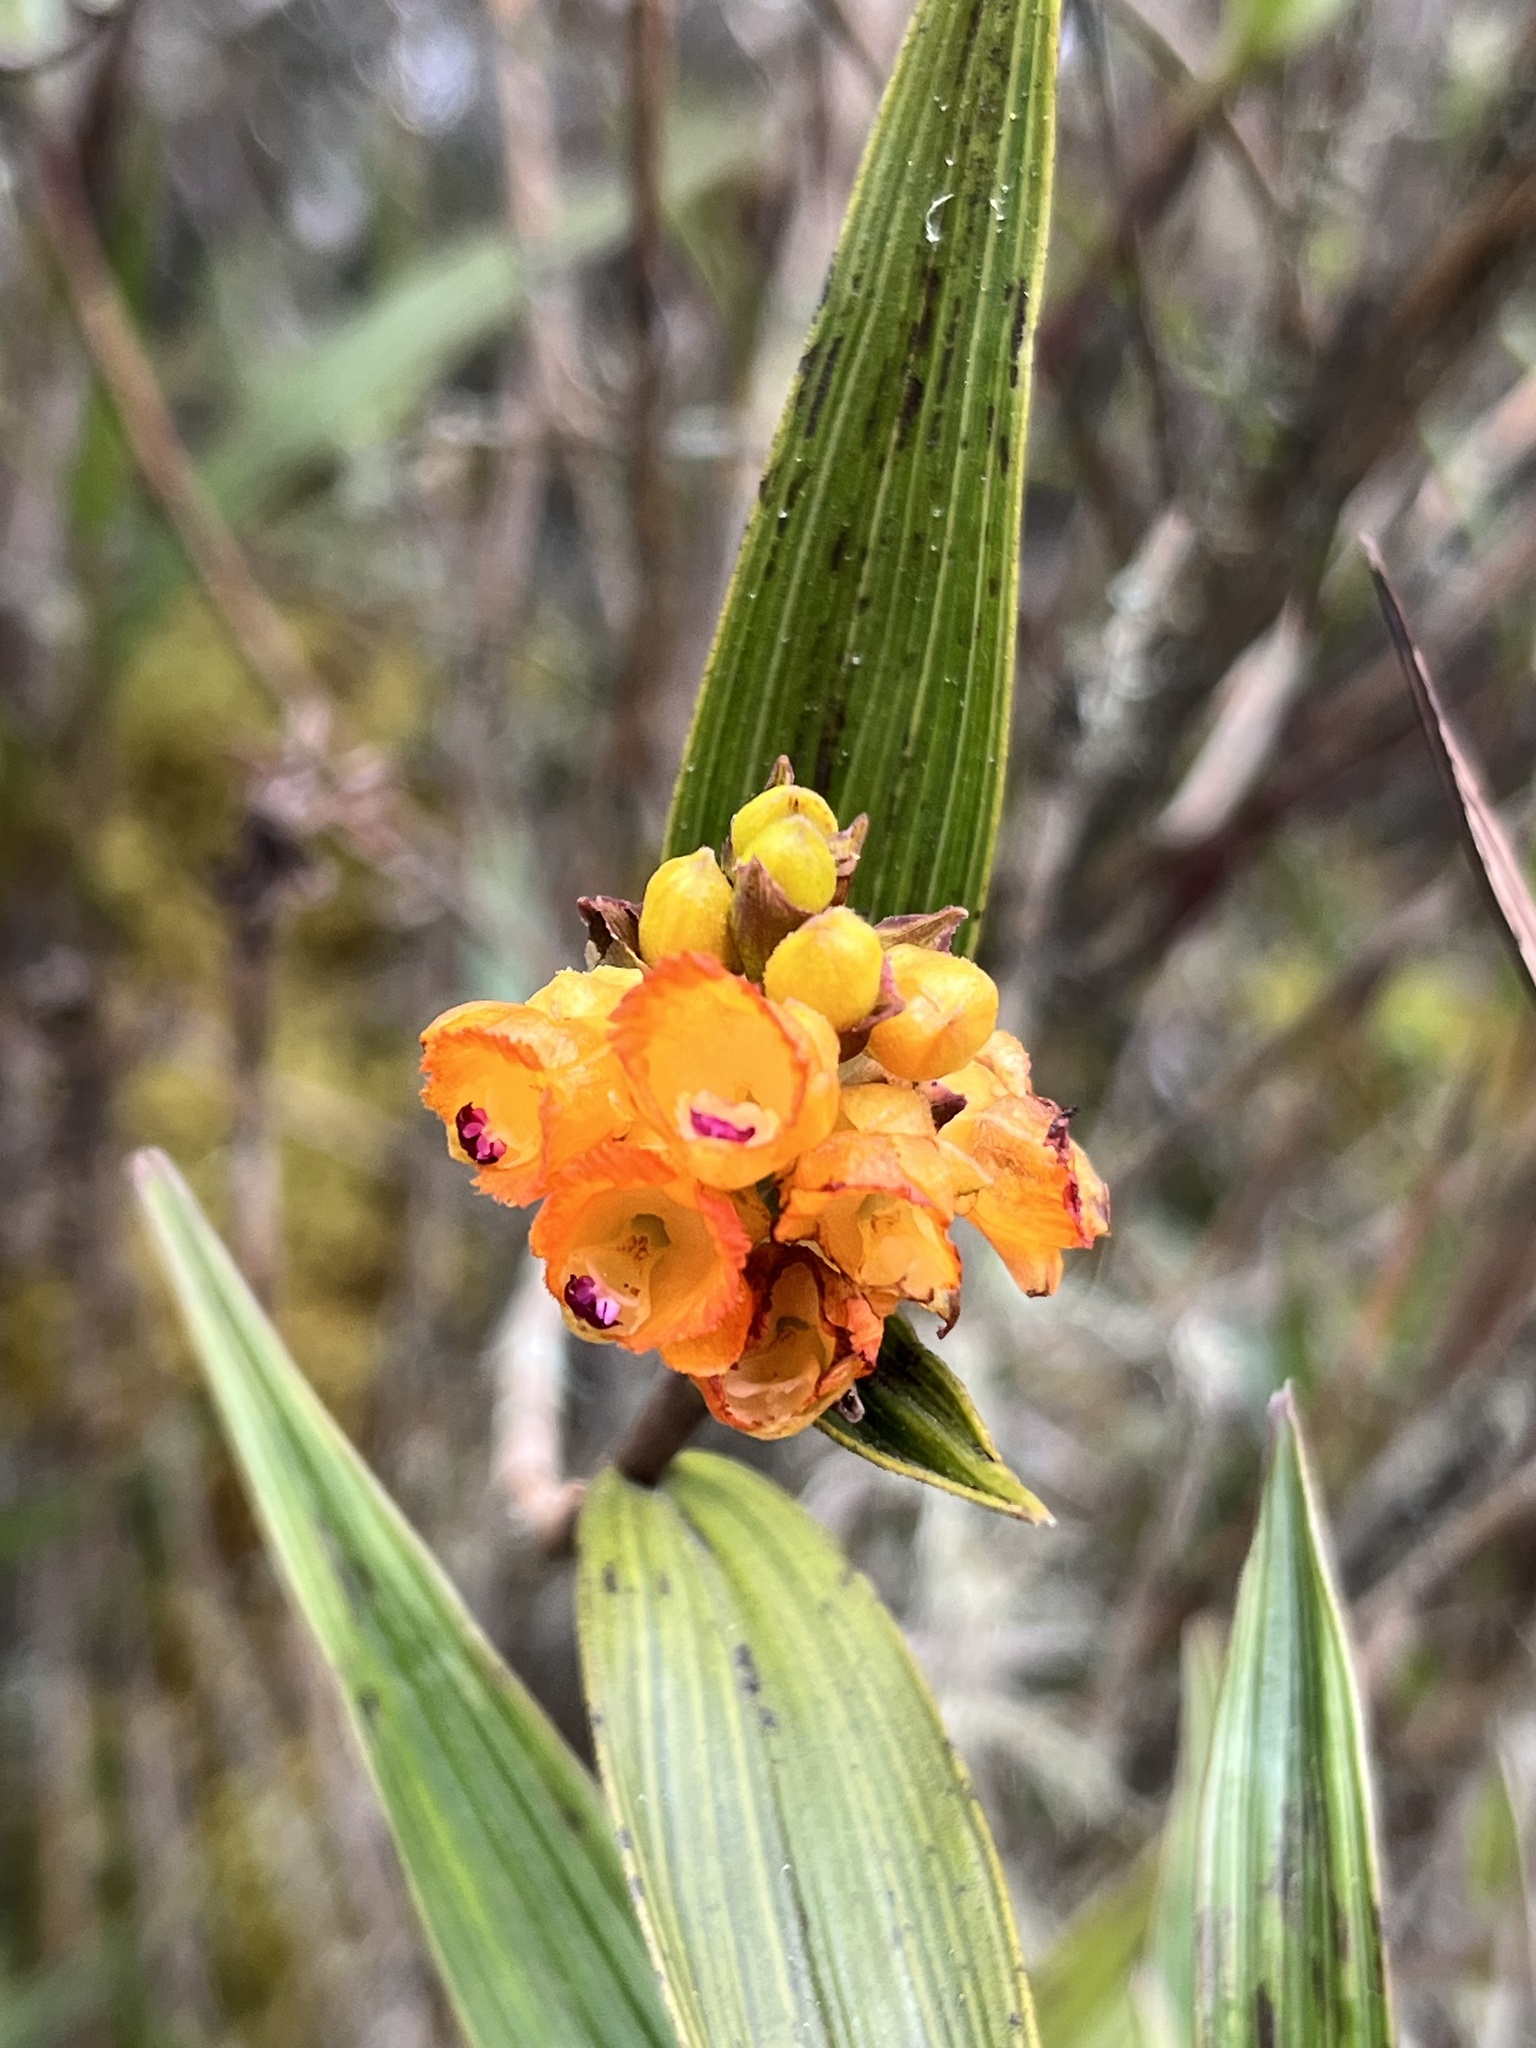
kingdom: Plantae
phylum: Tracheophyta
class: Liliopsida
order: Asparagales
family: Orchidaceae
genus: Elleanthus
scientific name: Elleanthus aurantiacus
